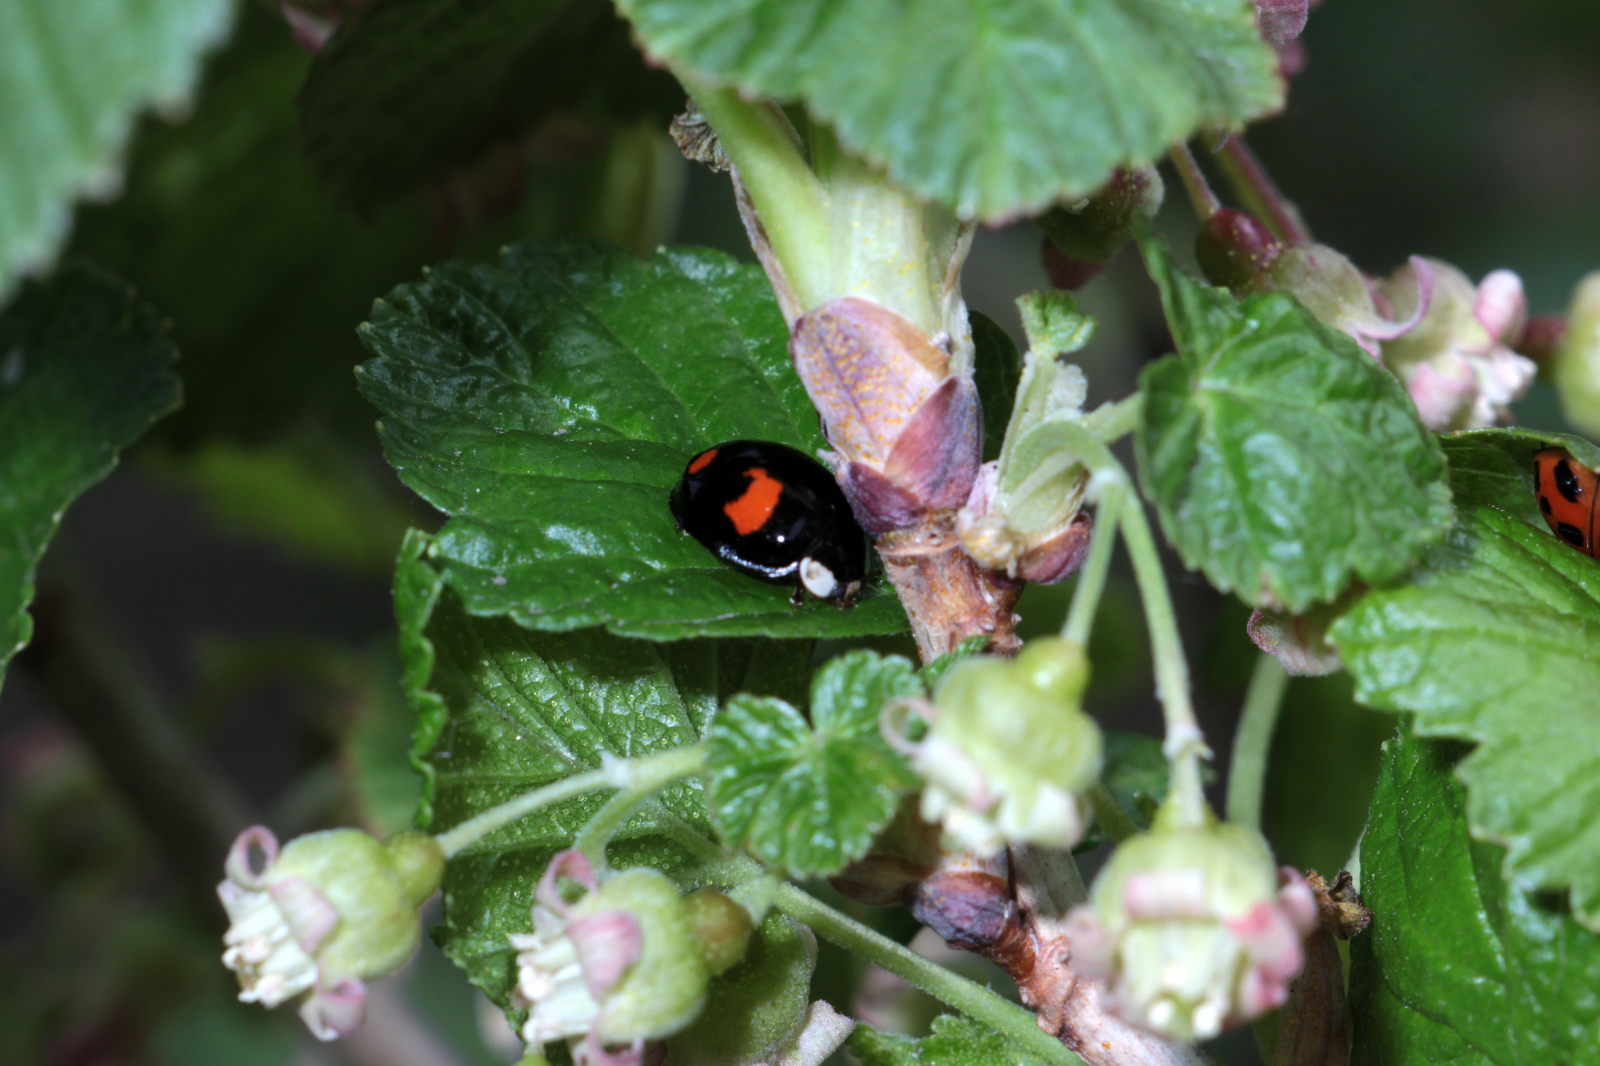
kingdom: Animalia
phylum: Arthropoda
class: Insecta
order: Coleoptera
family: Coccinellidae
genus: Harmonia
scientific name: Harmonia axyridis
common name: Harlequin ladybird
